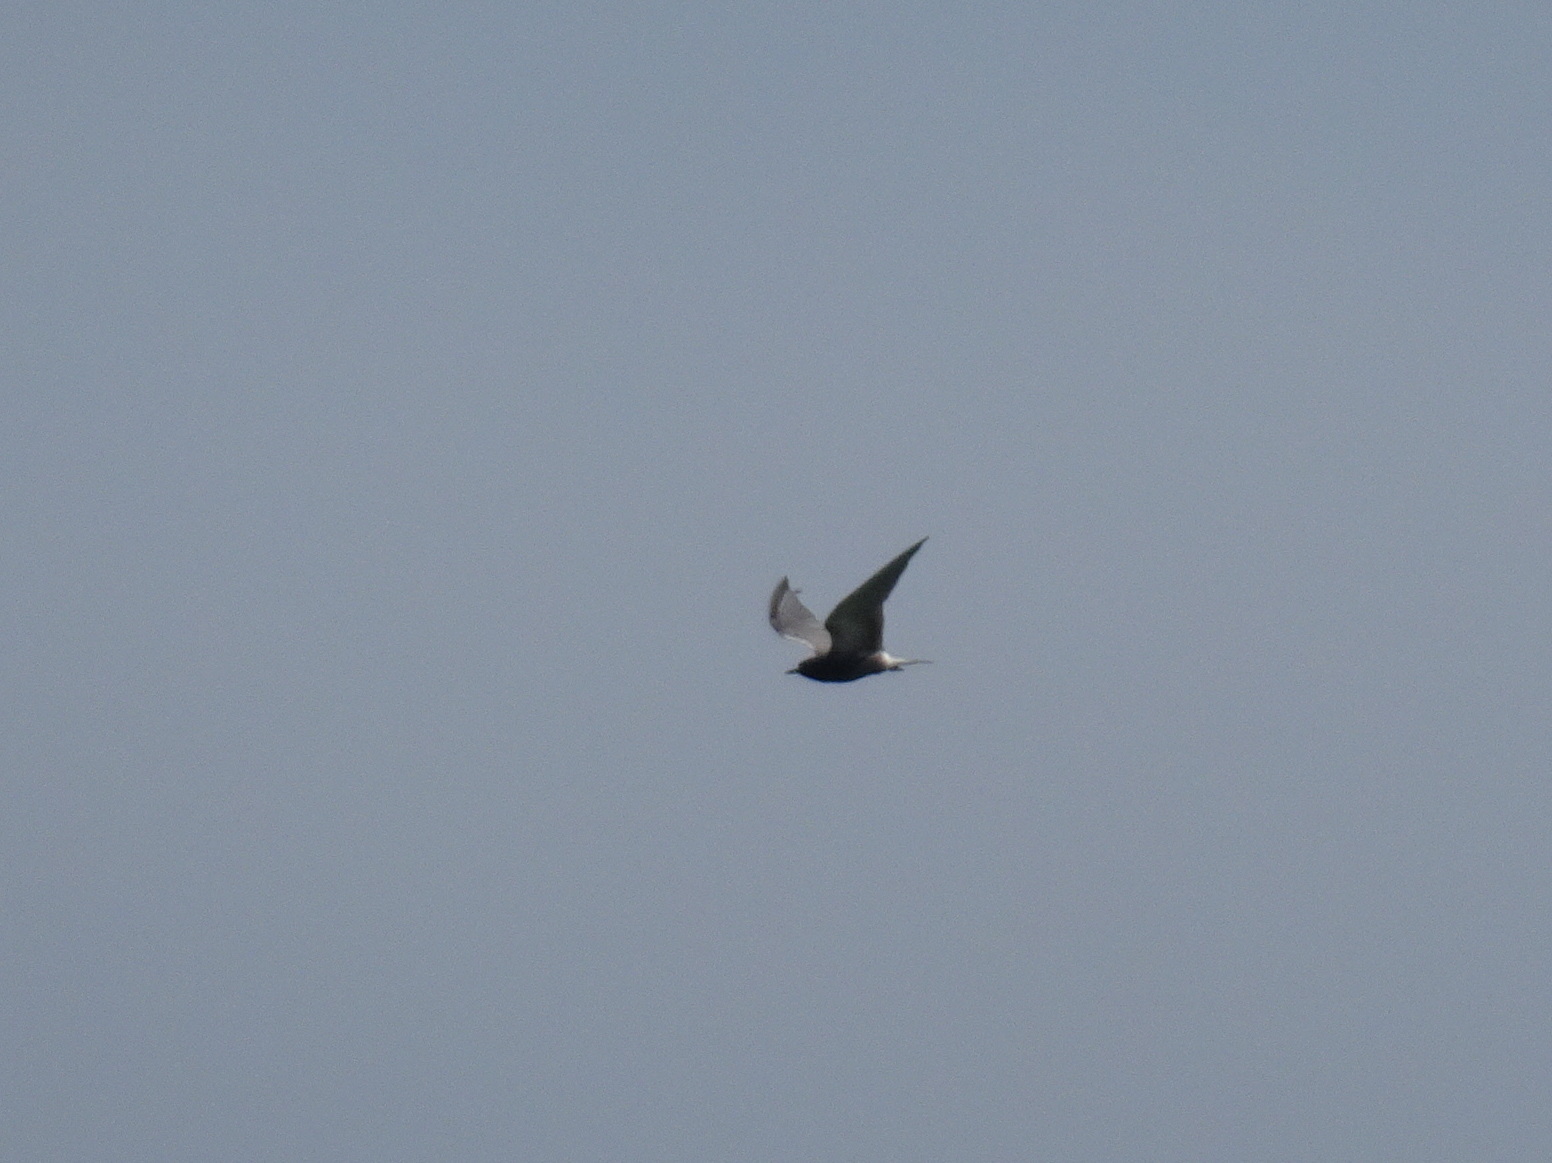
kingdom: Animalia
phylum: Chordata
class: Aves
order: Charadriiformes
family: Laridae
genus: Chlidonias
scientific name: Chlidonias niger
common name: Black tern
